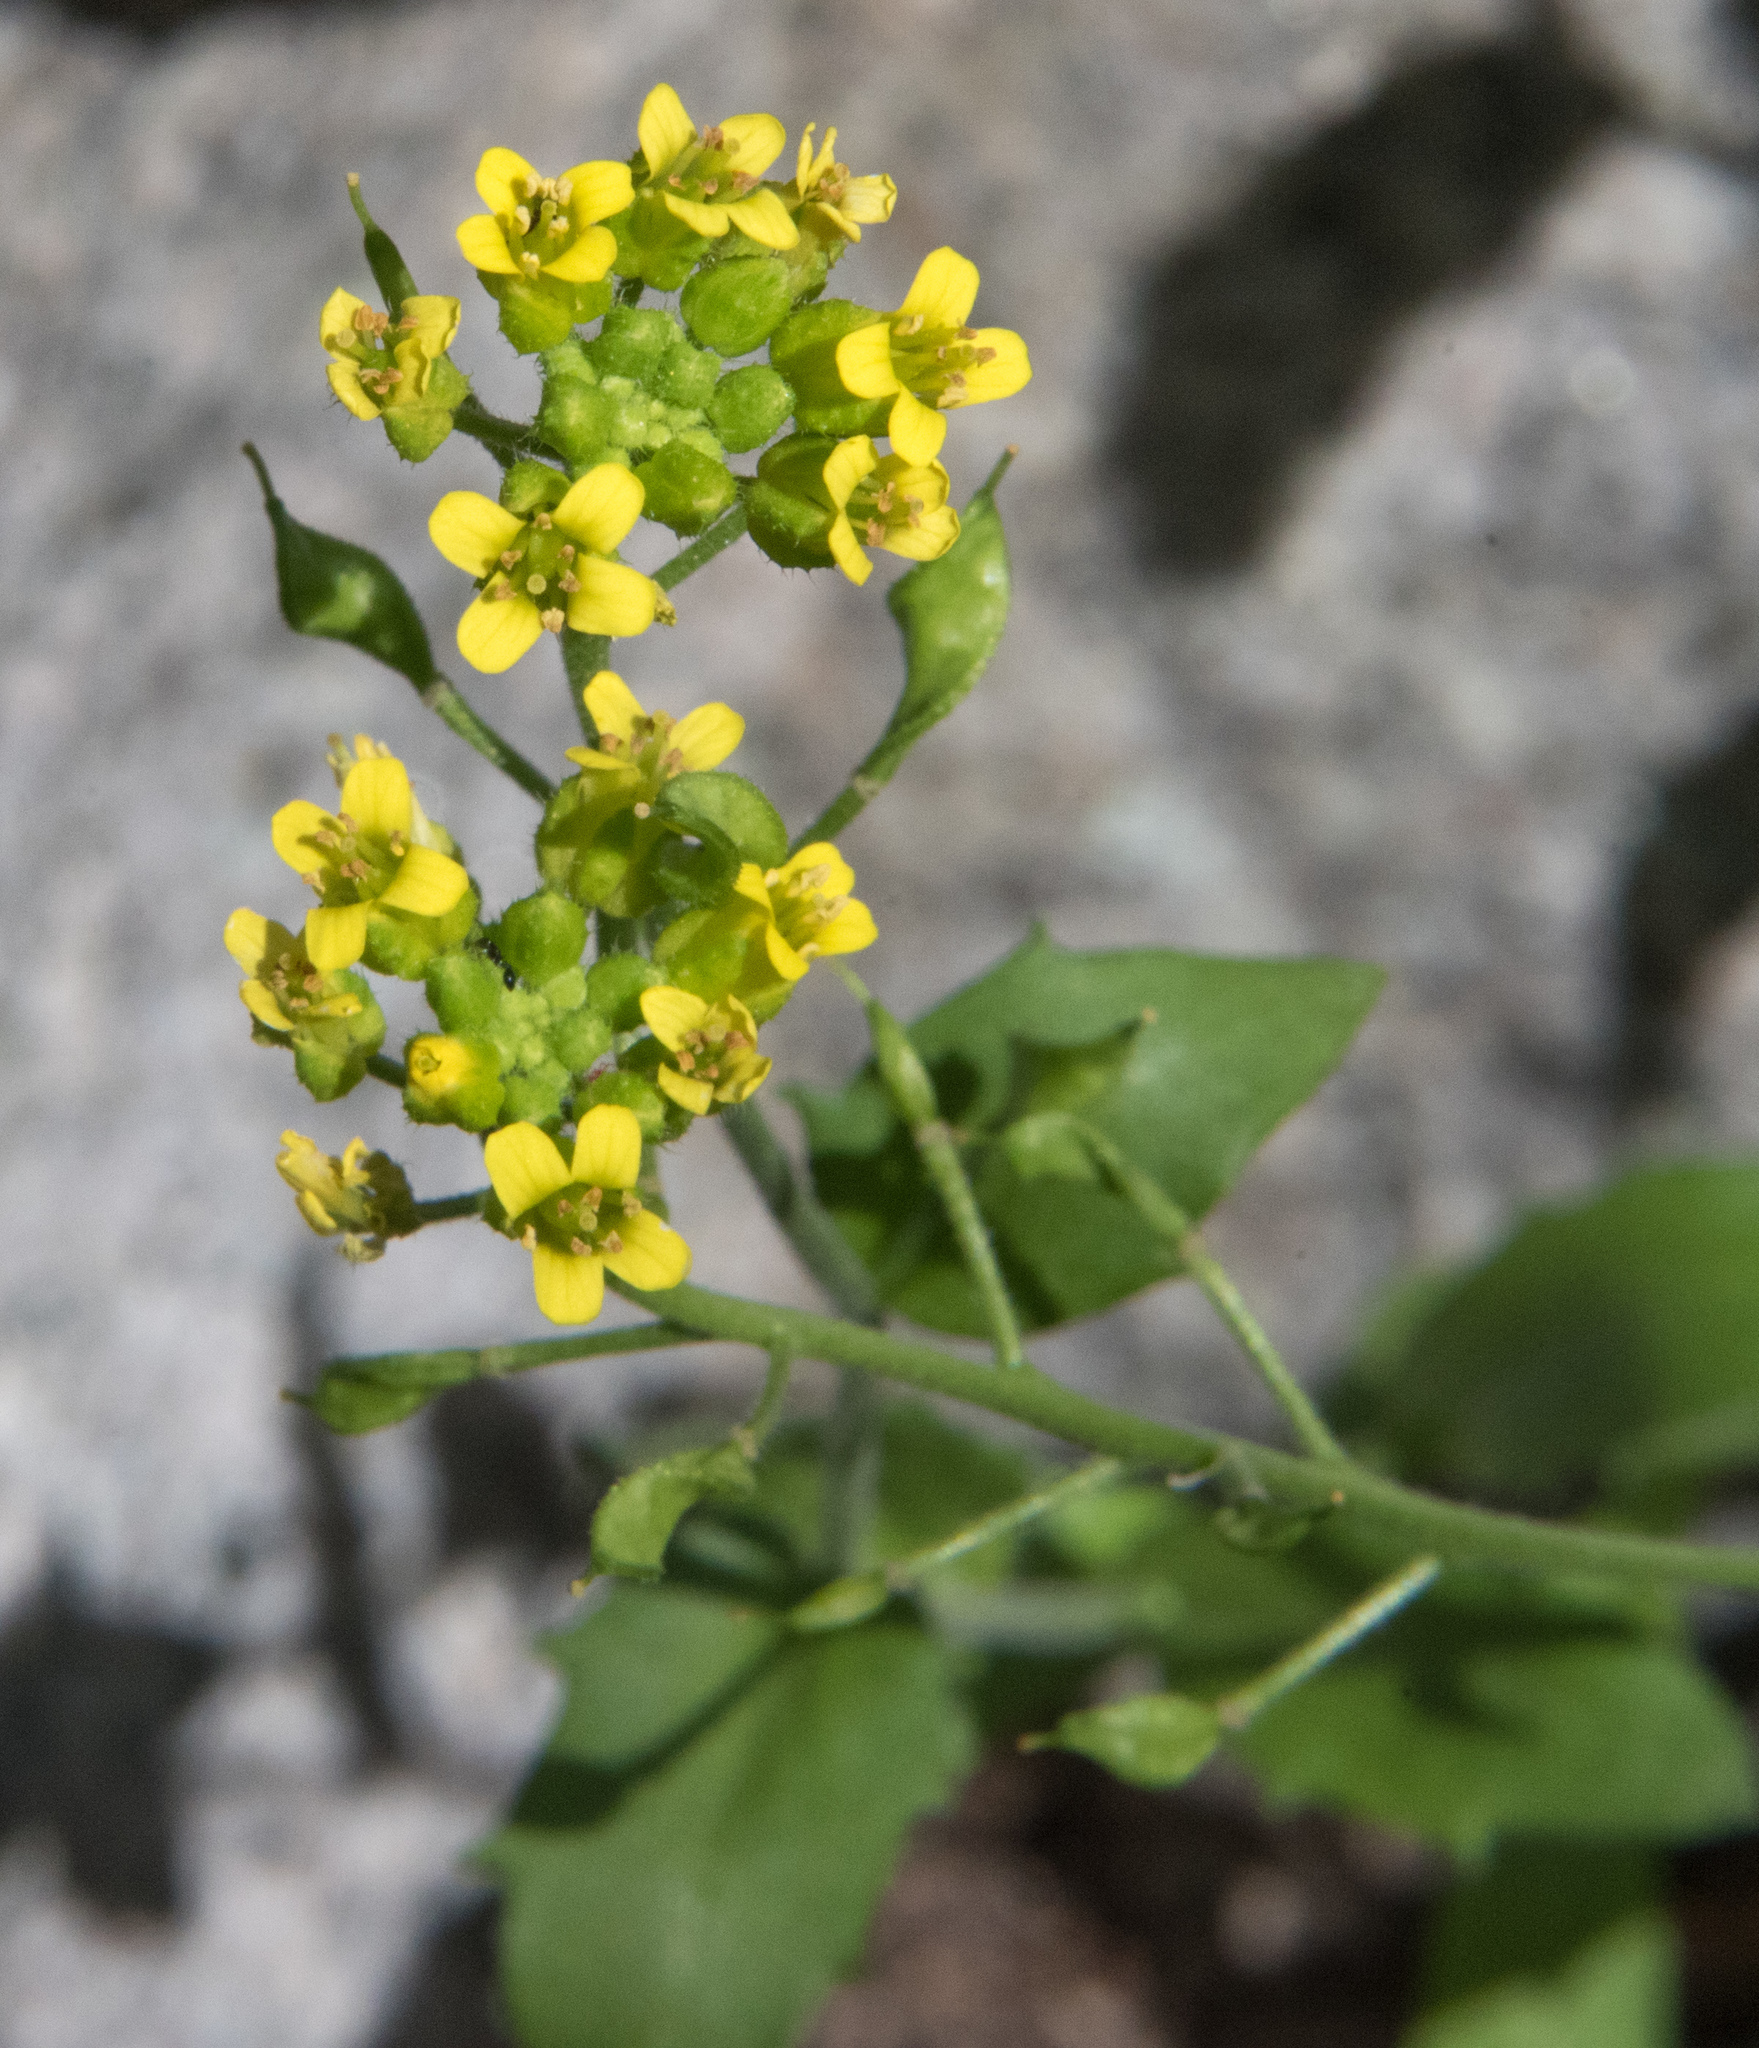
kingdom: Plantae
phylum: Tracheophyta
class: Magnoliopsida
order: Brassicales
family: Brassicaceae
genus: Draba
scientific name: Draba helleriana
